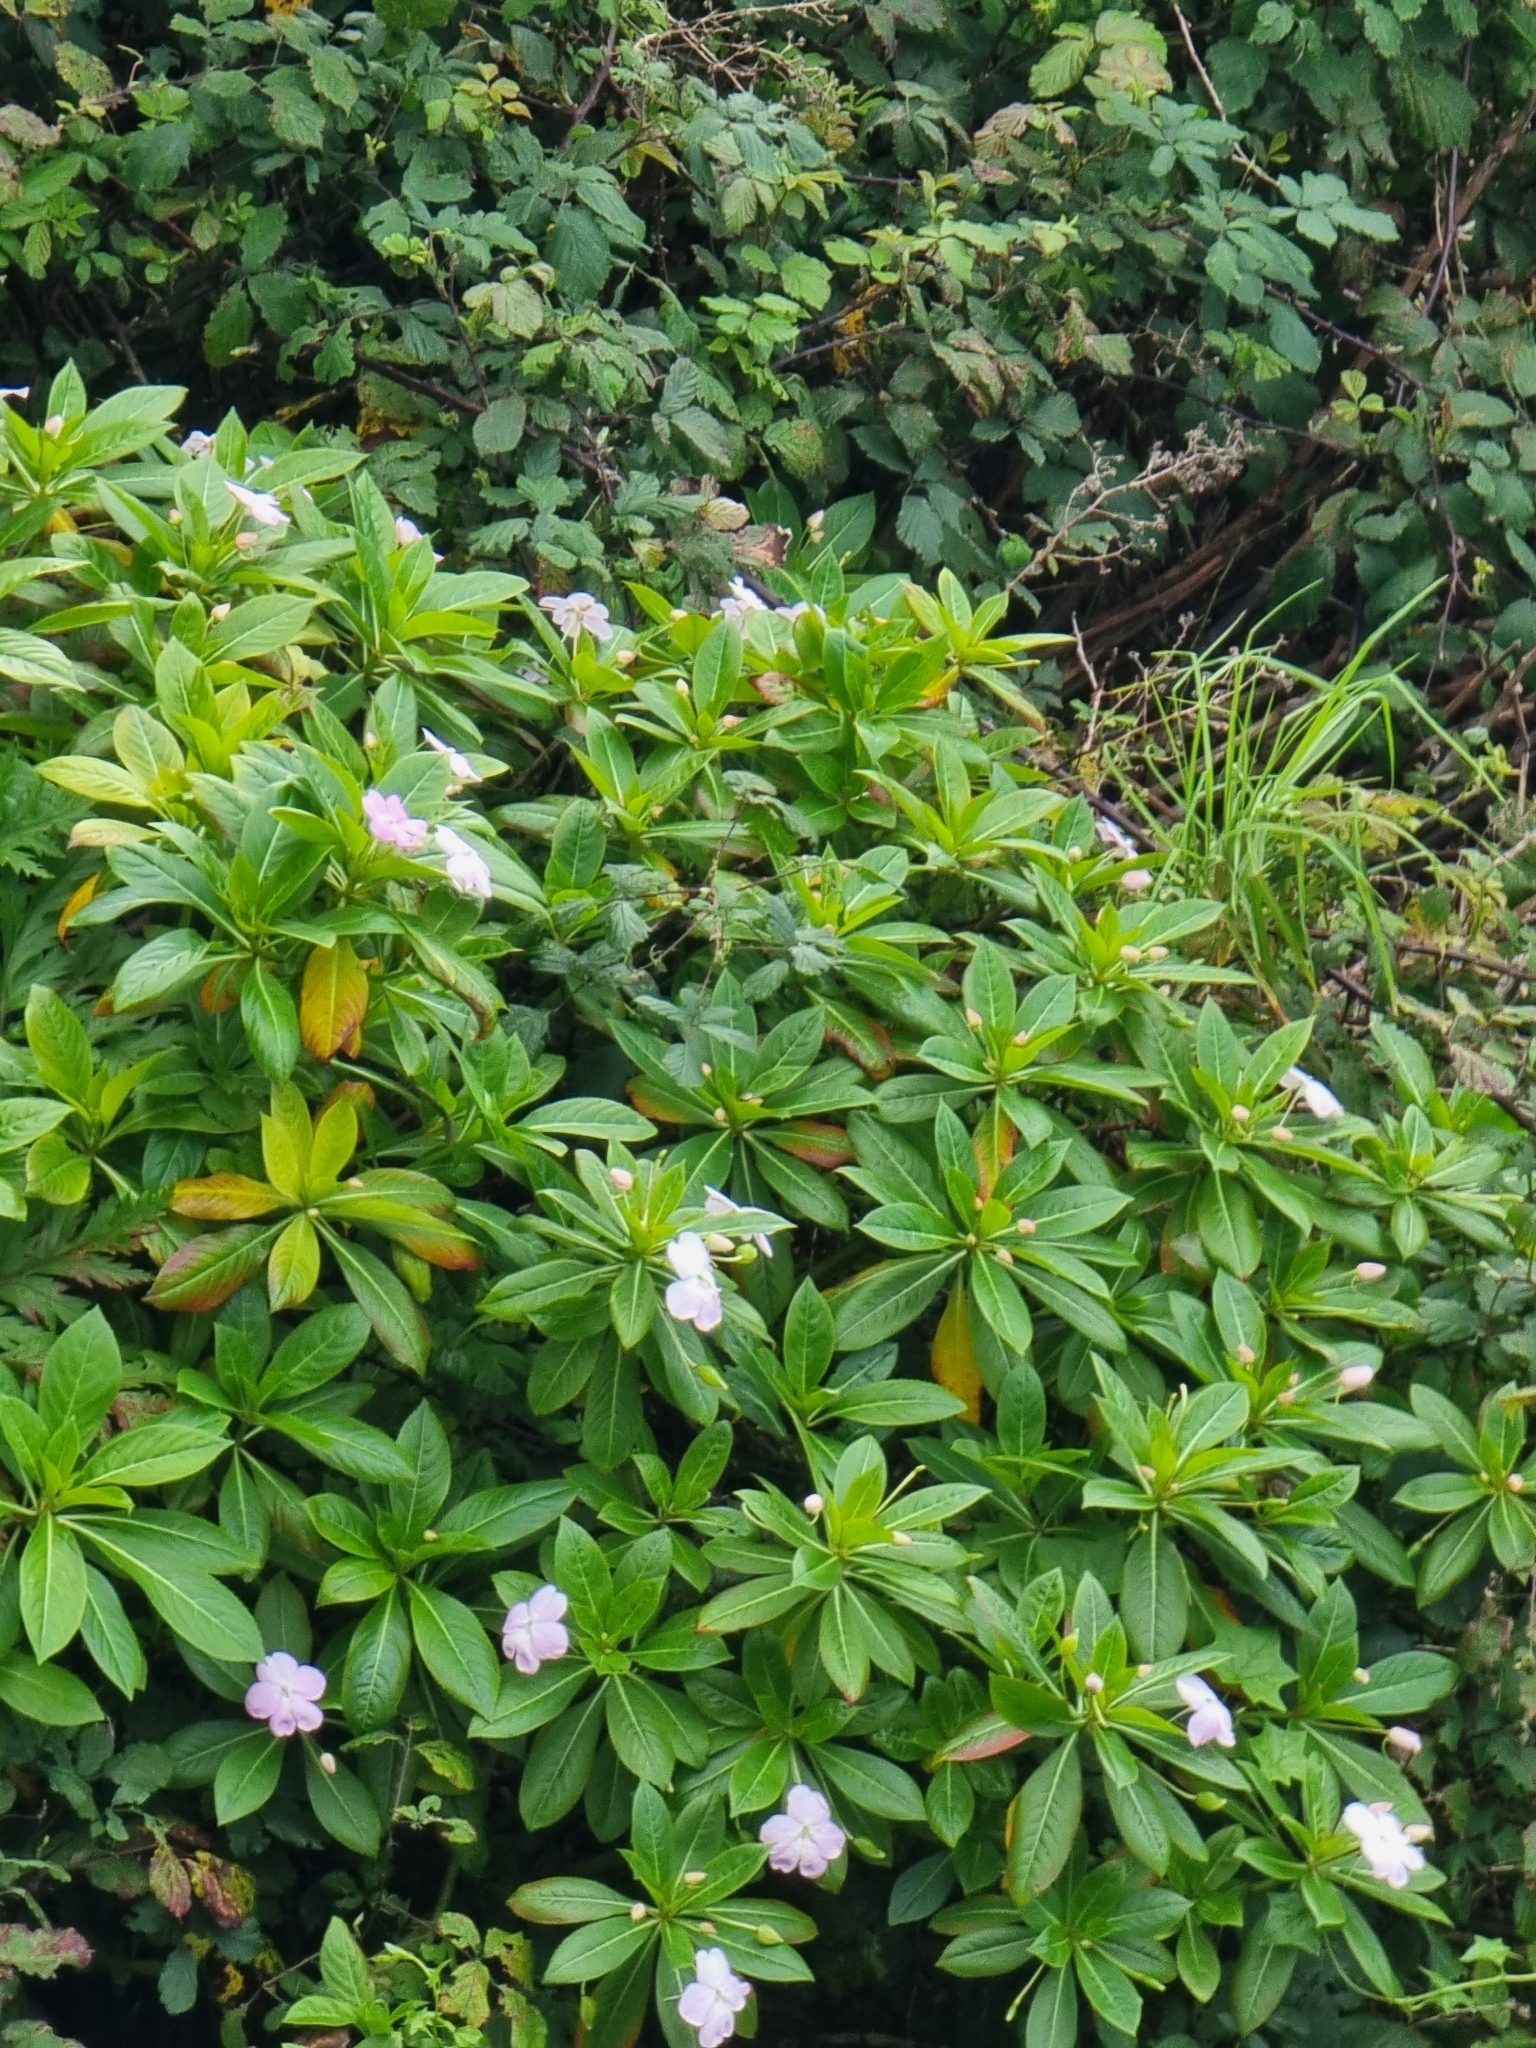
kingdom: Plantae
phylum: Tracheophyta
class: Magnoliopsida
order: Ericales
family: Balsaminaceae
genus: Impatiens
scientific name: Impatiens sodenii
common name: Oliver's touch-me-not
